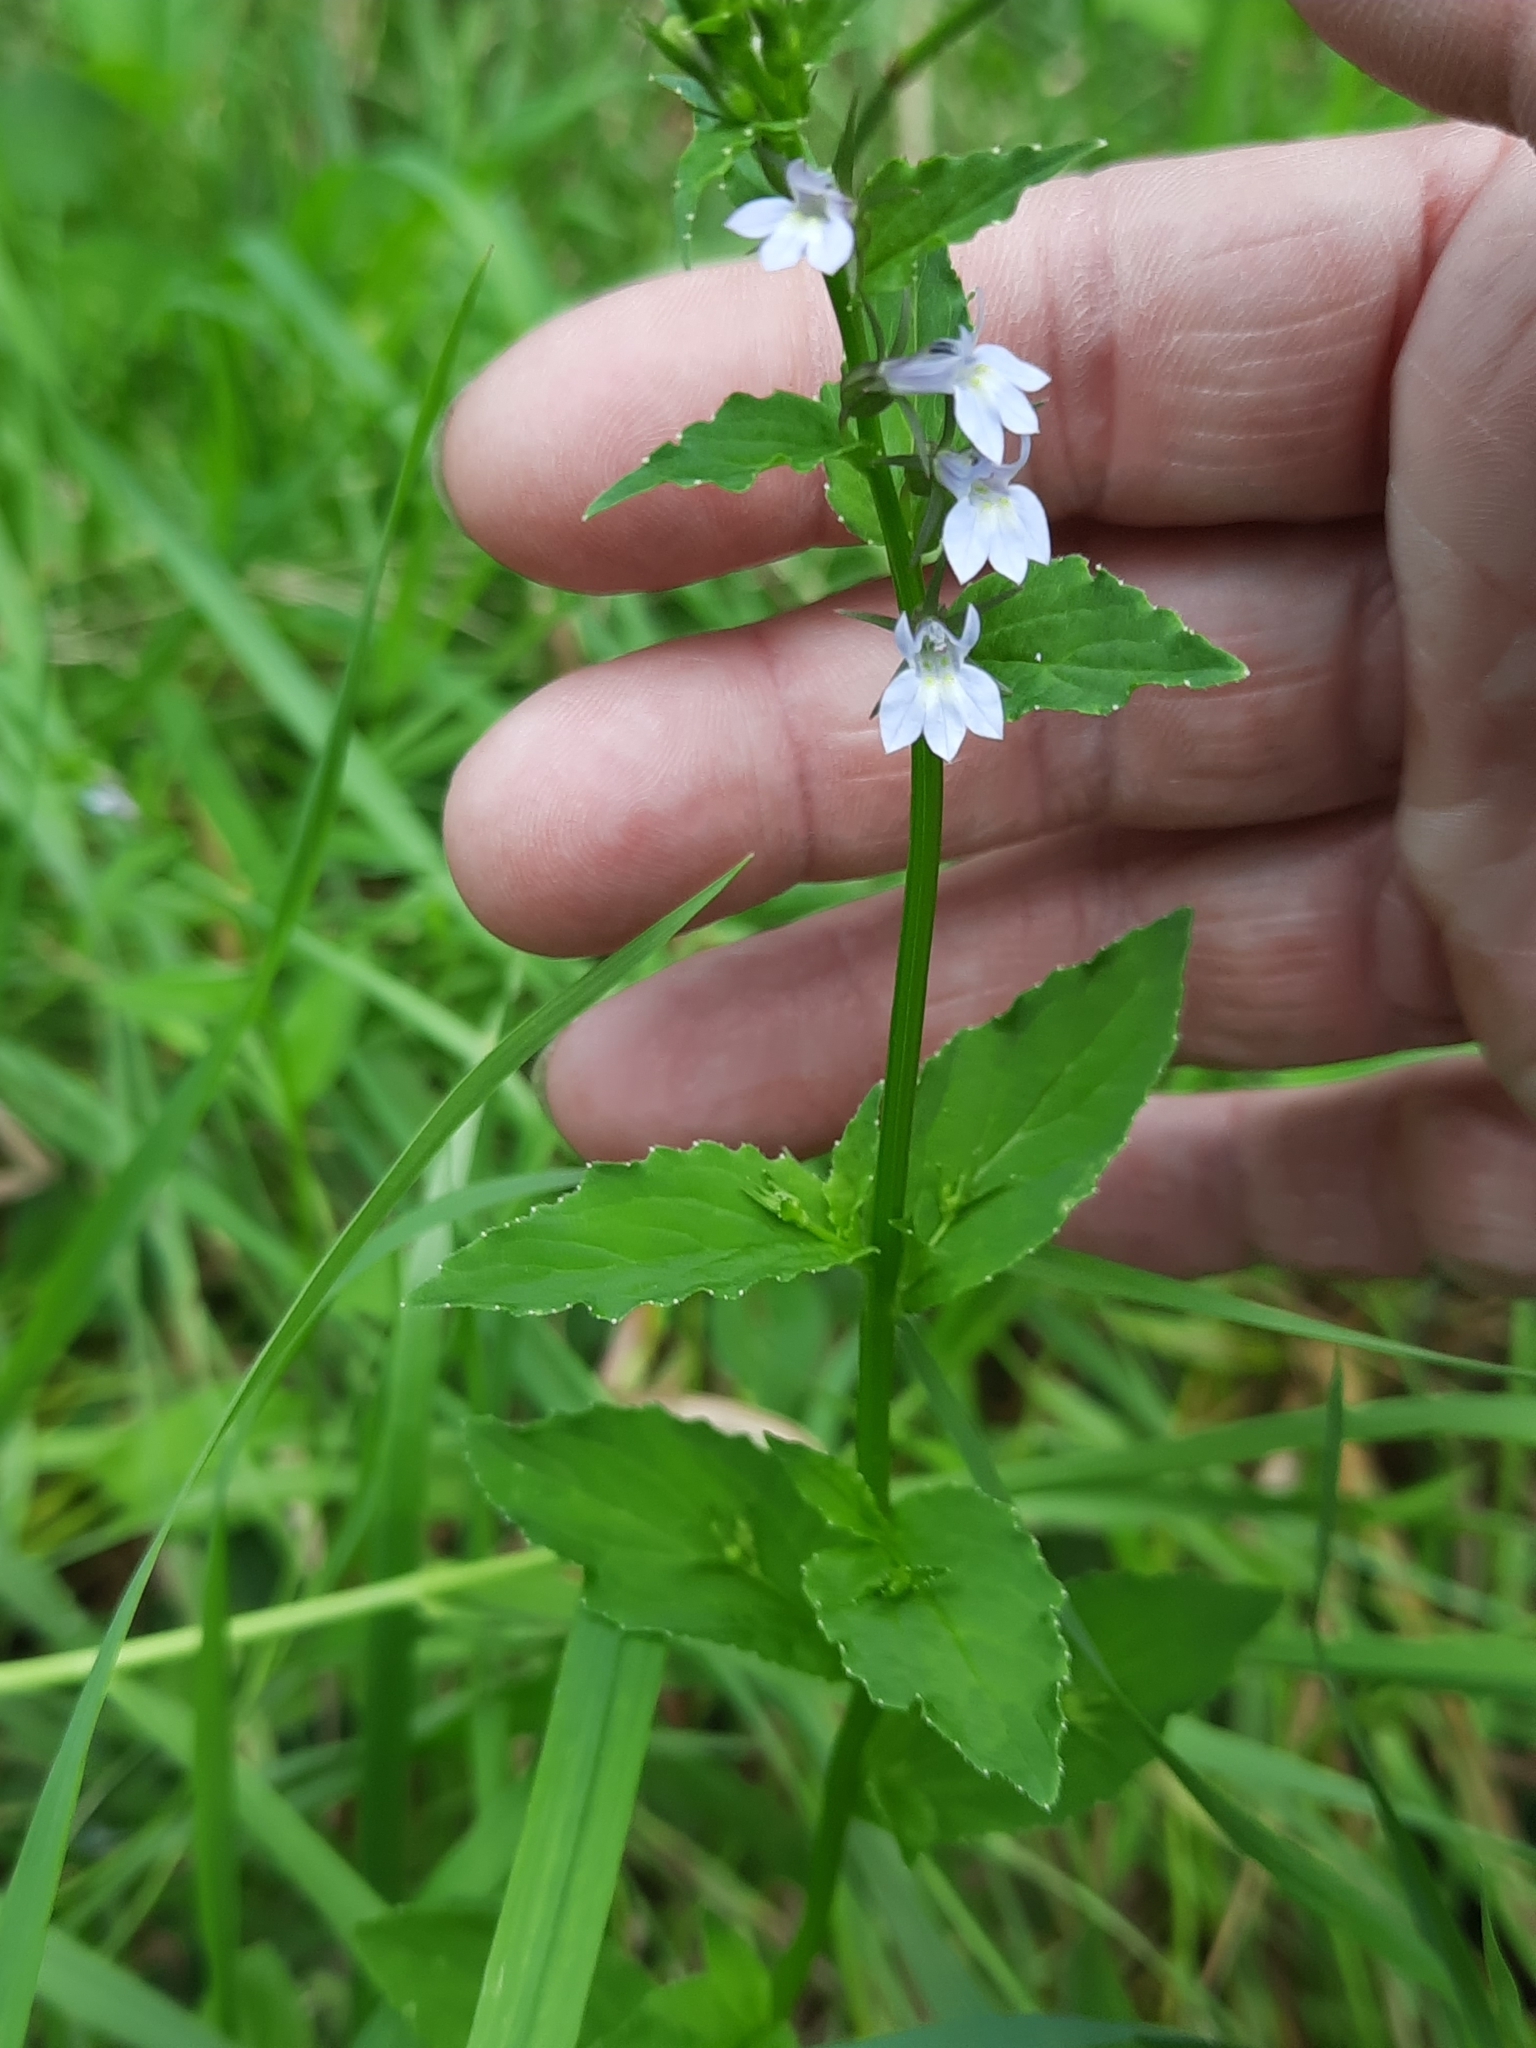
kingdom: Plantae
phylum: Tracheophyta
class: Magnoliopsida
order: Asterales
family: Campanulaceae
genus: Lobelia
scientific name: Lobelia inflata
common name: Indian tobacco
